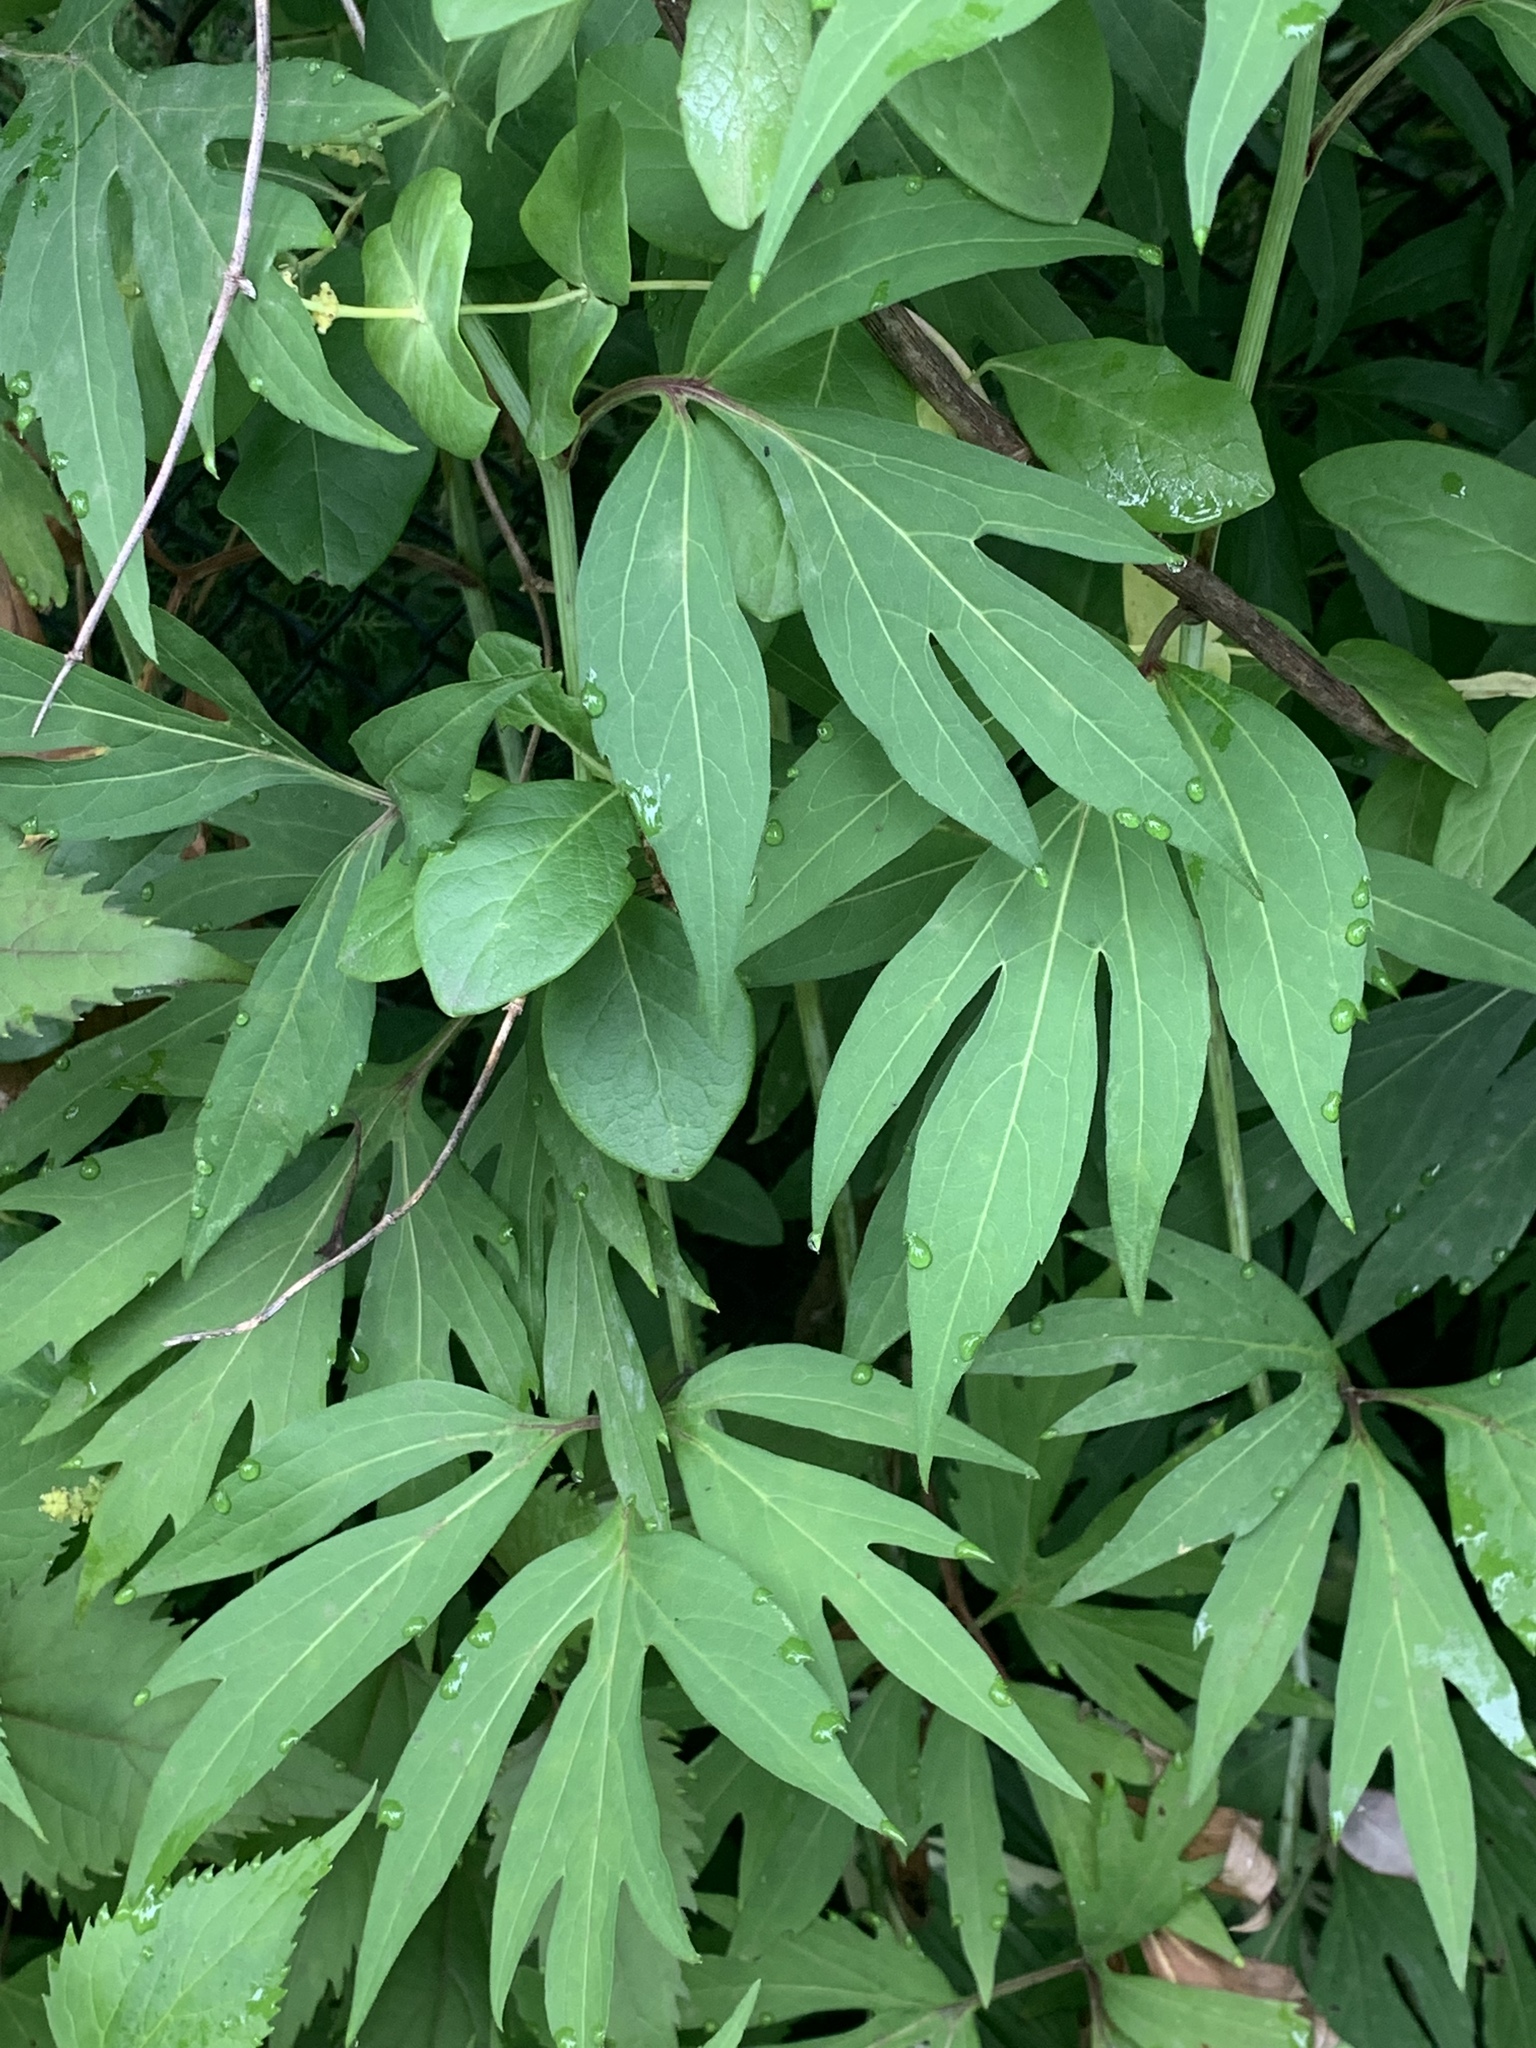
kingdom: Plantae
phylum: Tracheophyta
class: Magnoliopsida
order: Asterales
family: Asteraceae
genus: Rudbeckia
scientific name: Rudbeckia laciniata
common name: Coneflower
